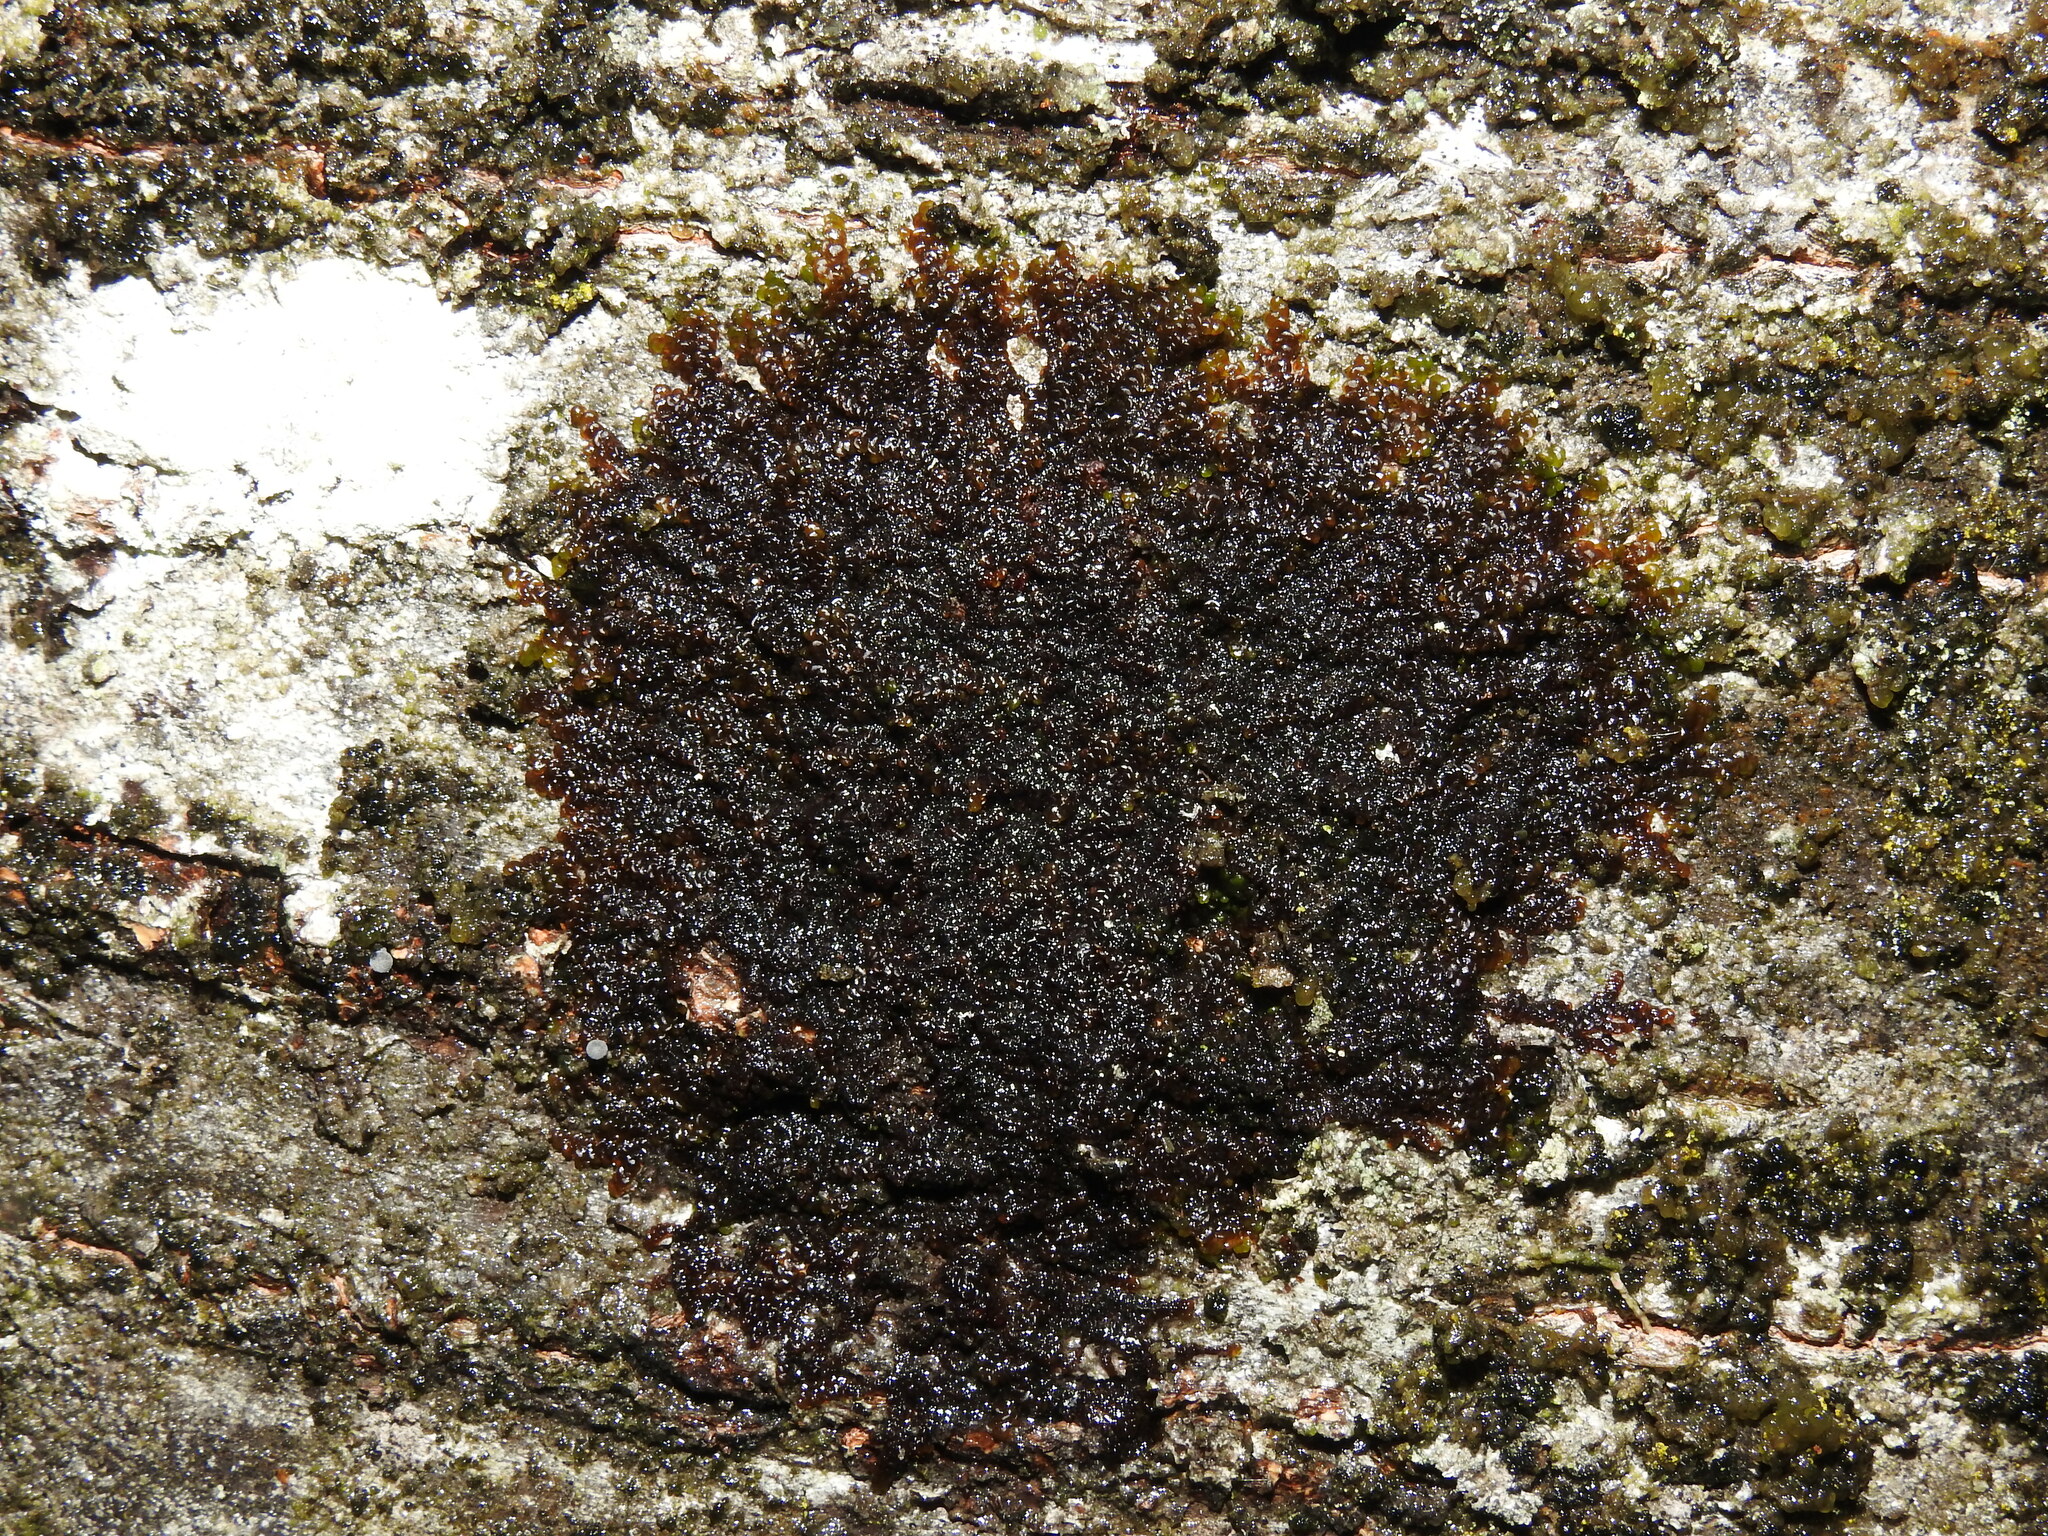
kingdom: Plantae
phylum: Marchantiophyta
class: Jungermanniopsida
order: Porellales
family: Frullaniaceae
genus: Frullania
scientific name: Frullania dilatata
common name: Dilated scalewort
